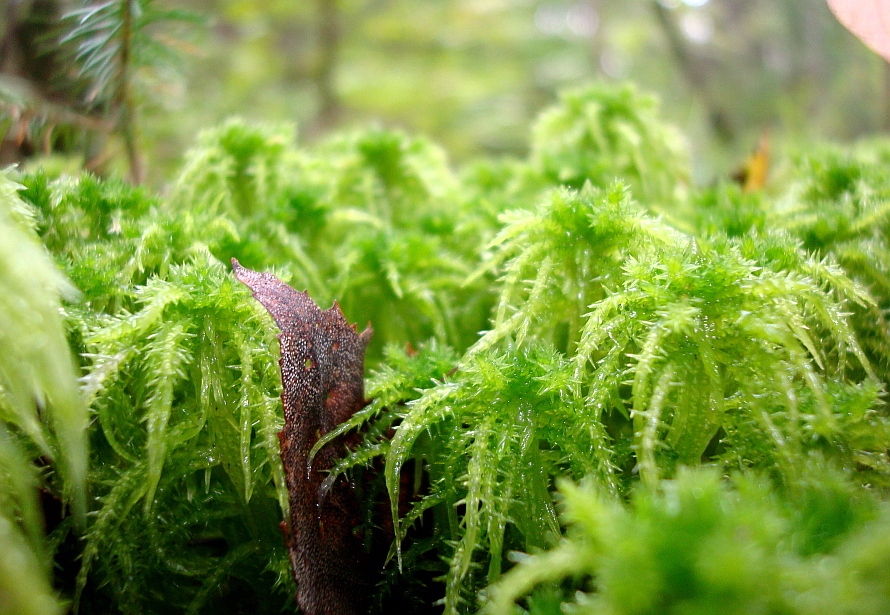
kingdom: Plantae
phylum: Bryophyta
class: Sphagnopsida
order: Sphagnales
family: Sphagnaceae
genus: Sphagnum
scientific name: Sphagnum squarrosum
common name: Shaggy peat moss
